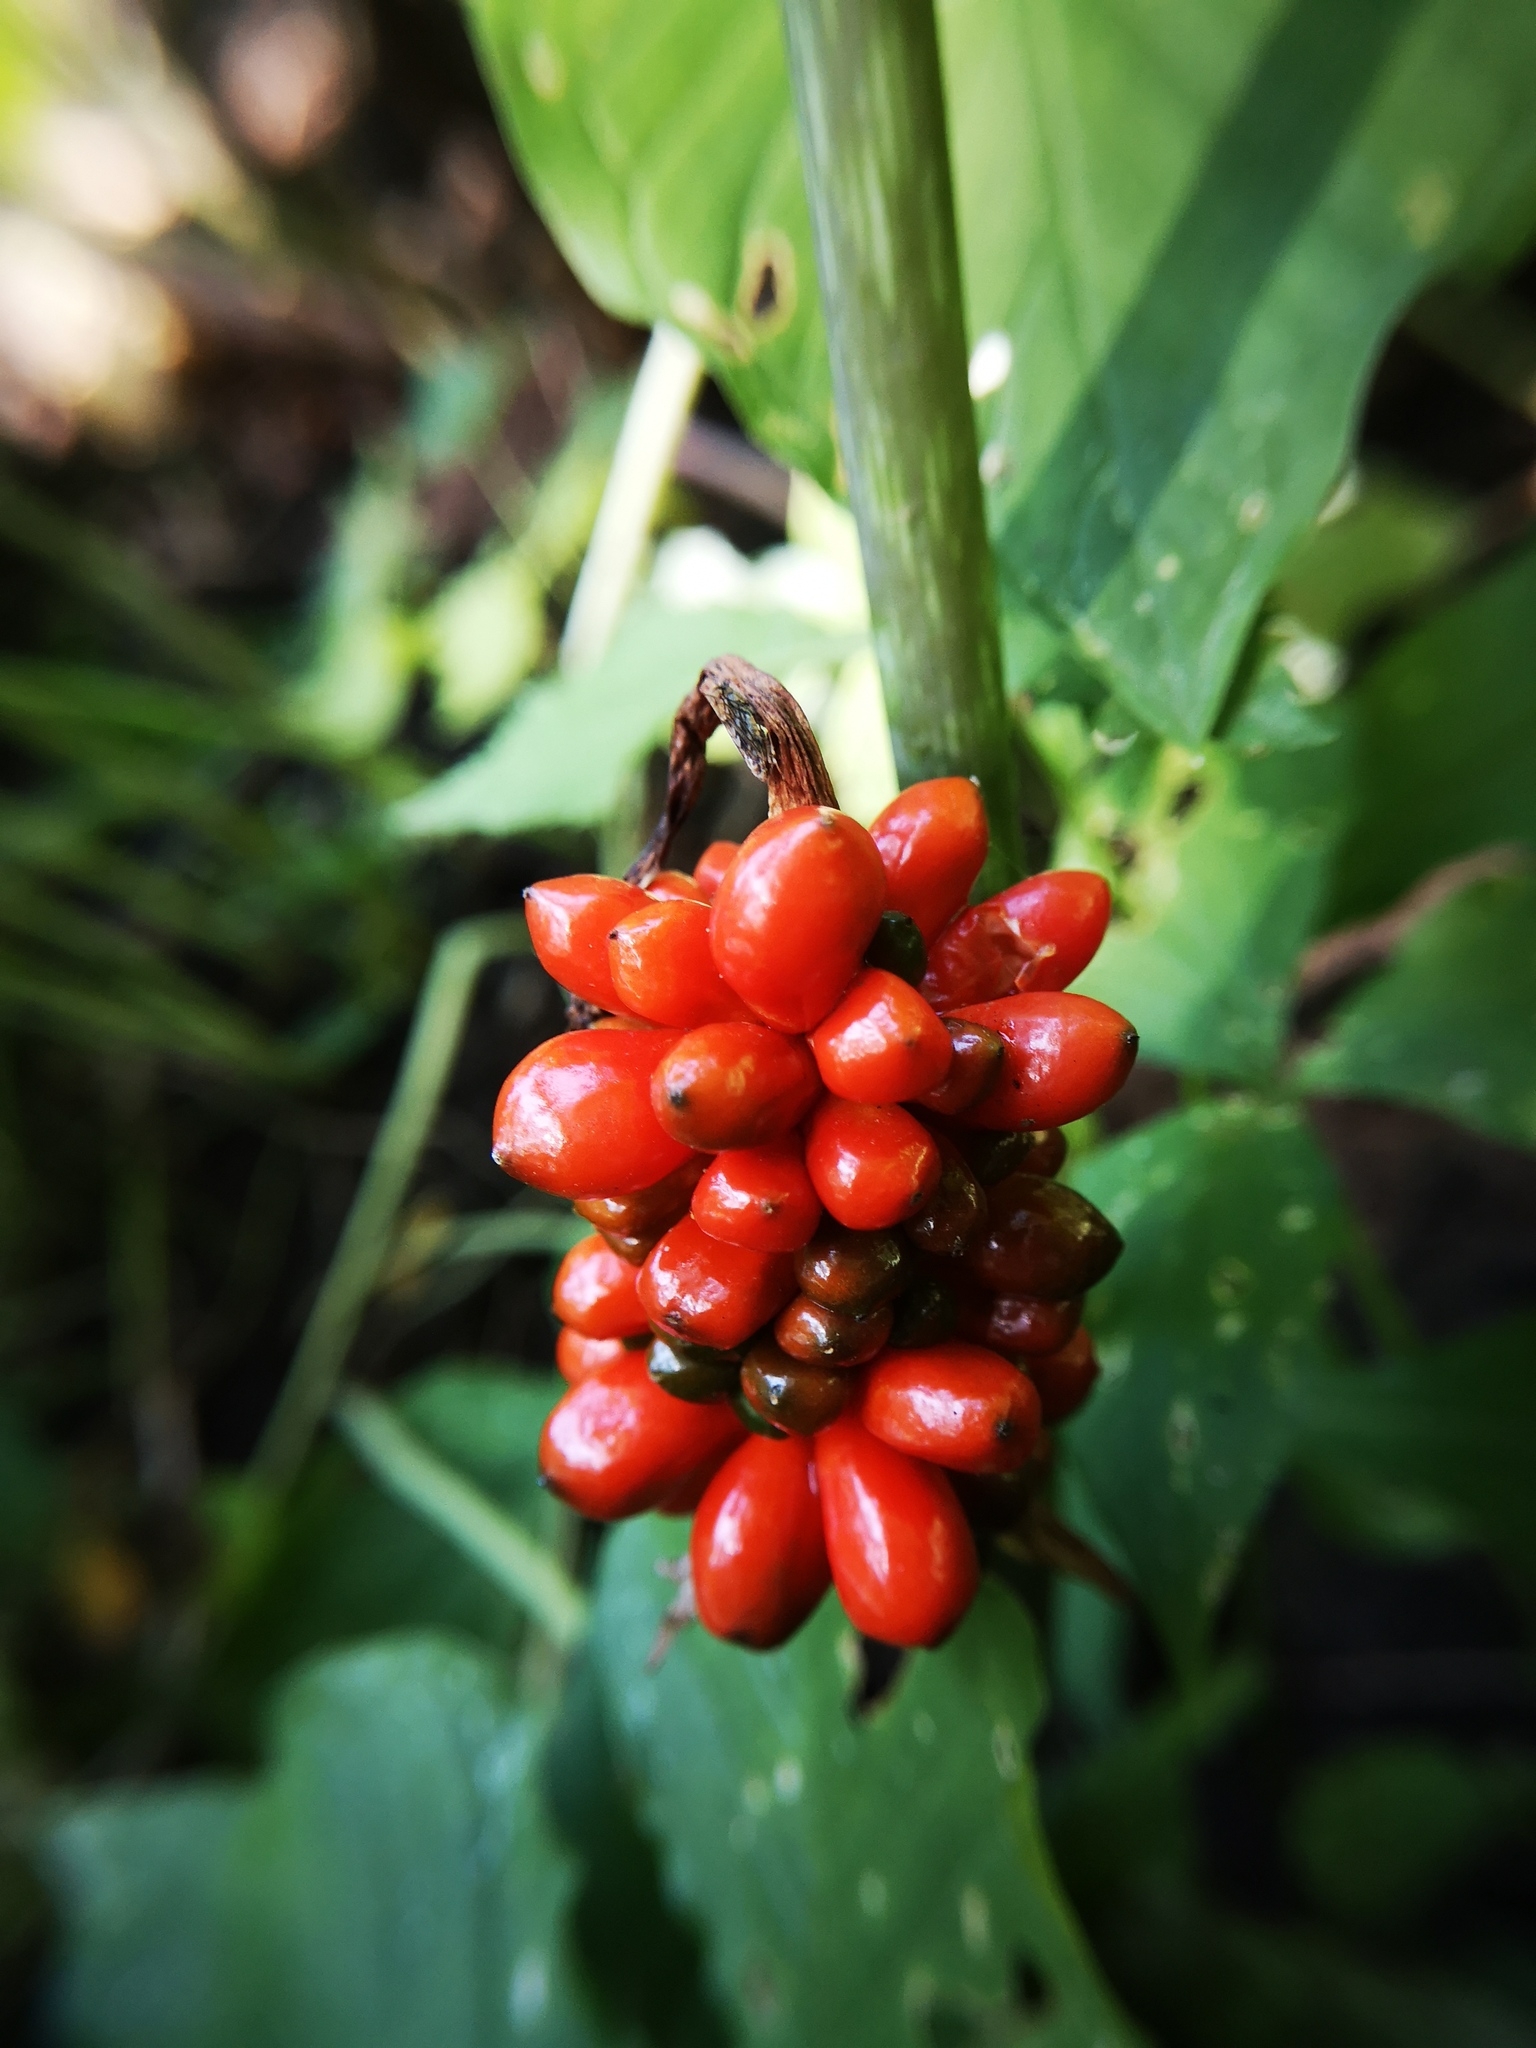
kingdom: Plantae
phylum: Tracheophyta
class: Liliopsida
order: Alismatales
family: Araceae
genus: Arisaema
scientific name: Arisaema triphyllum
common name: Jack-in-the-pulpit
